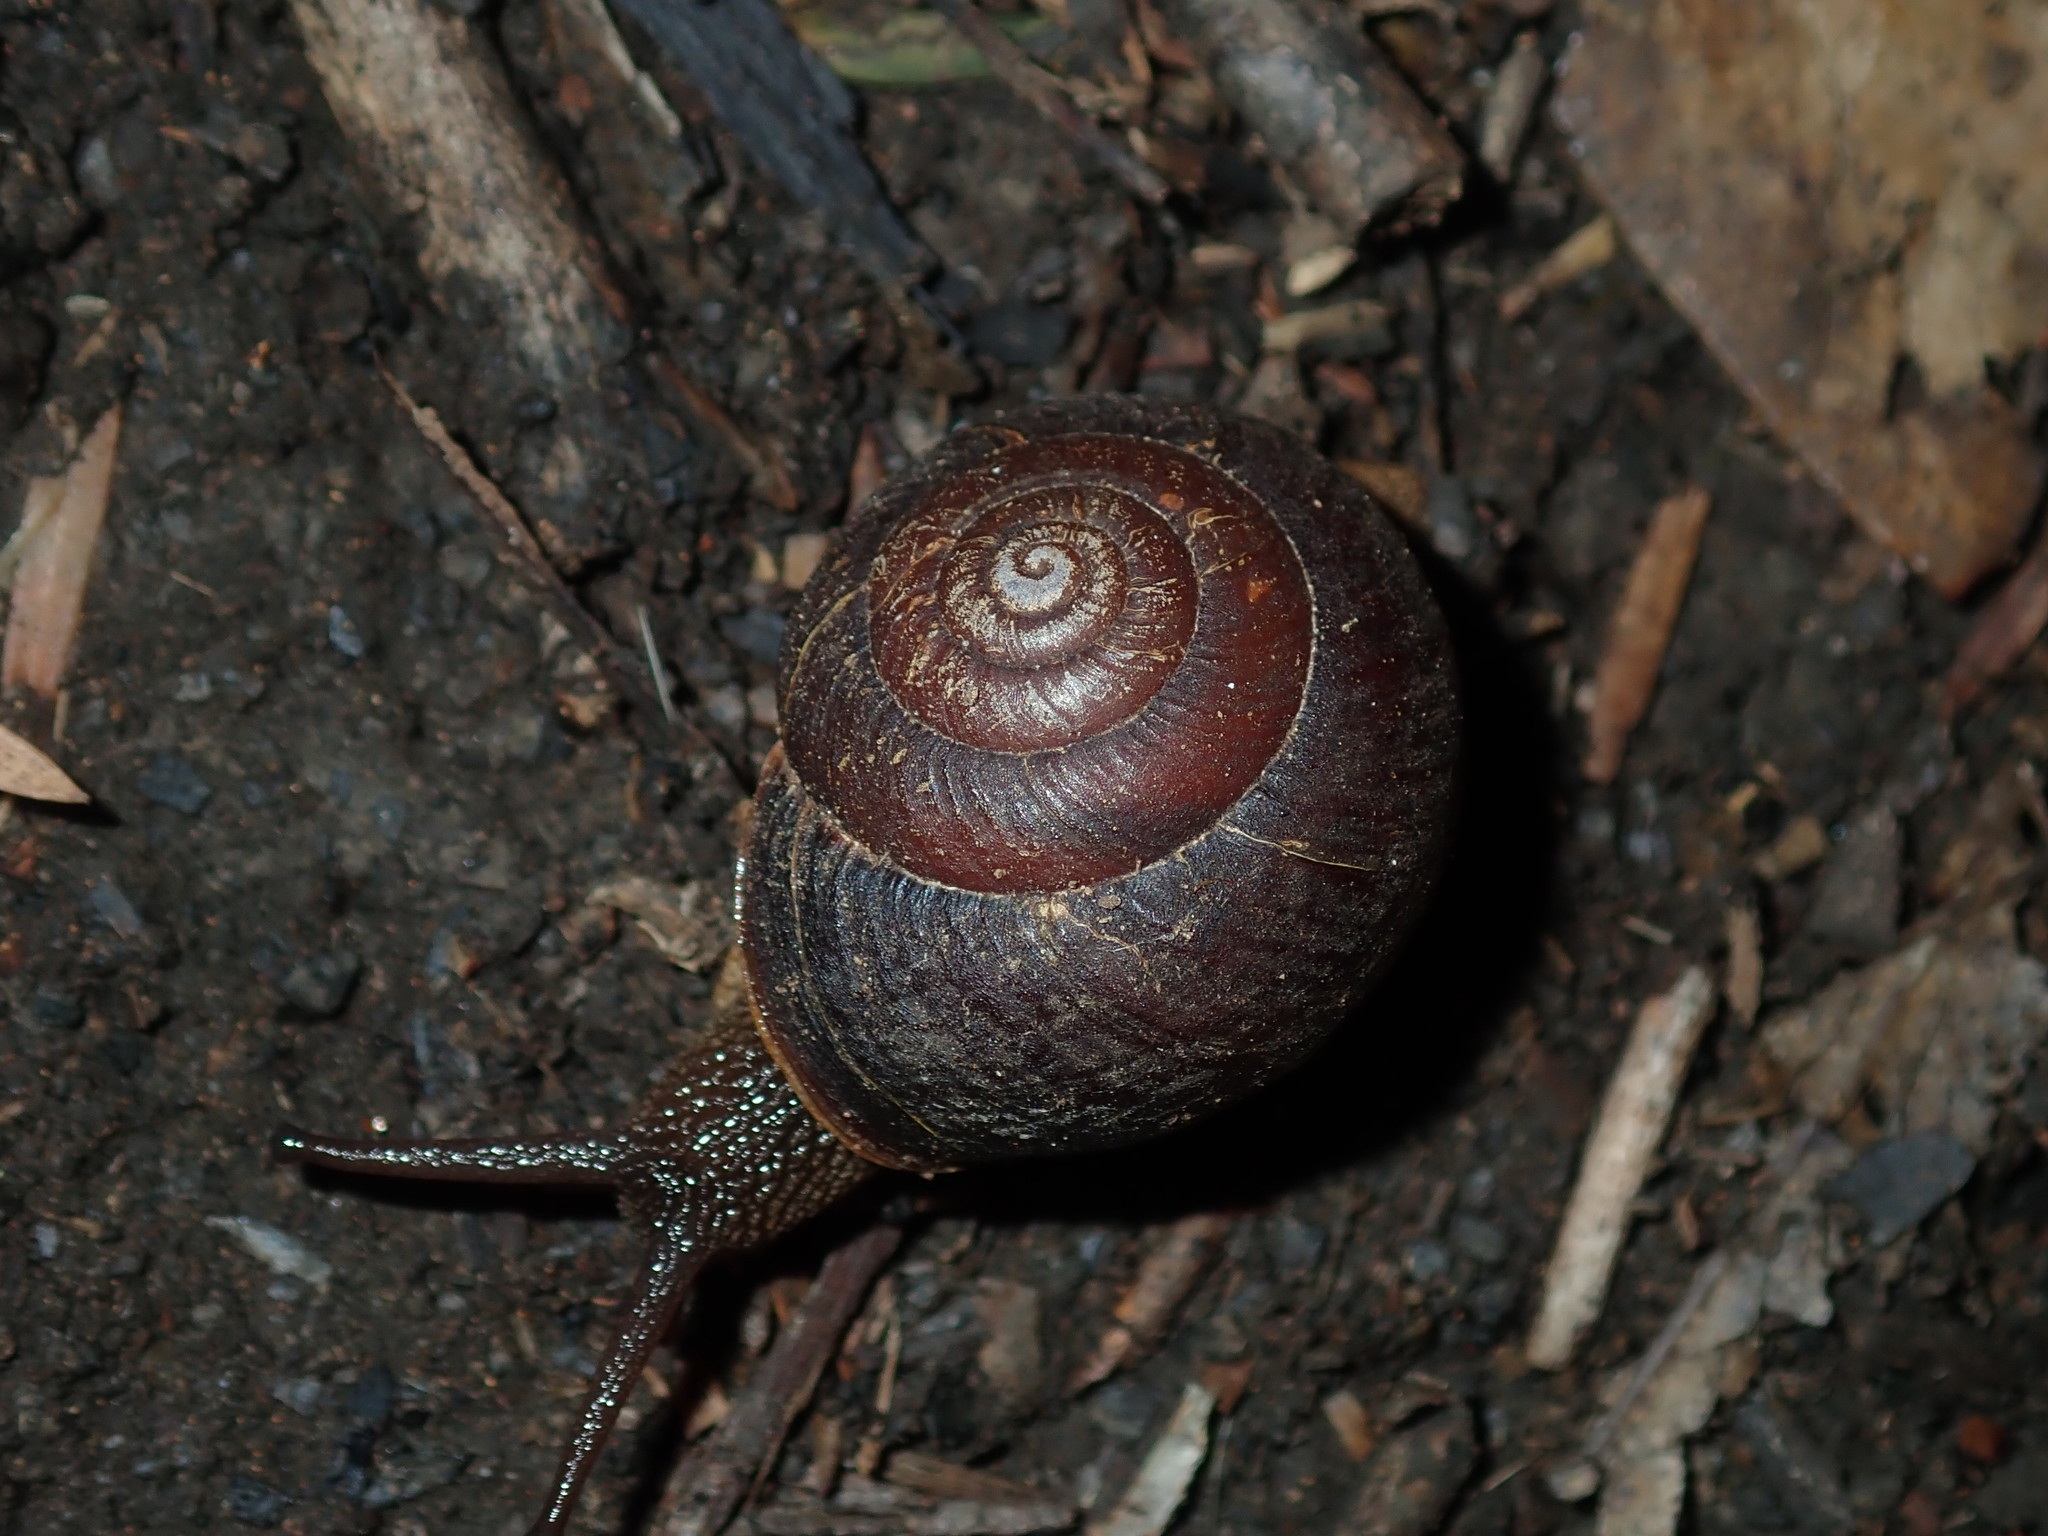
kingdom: Animalia
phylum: Mollusca
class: Gastropoda
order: Stylommatophora
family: Camaenidae
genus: Sauroconcha
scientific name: Sauroconcha sheai
